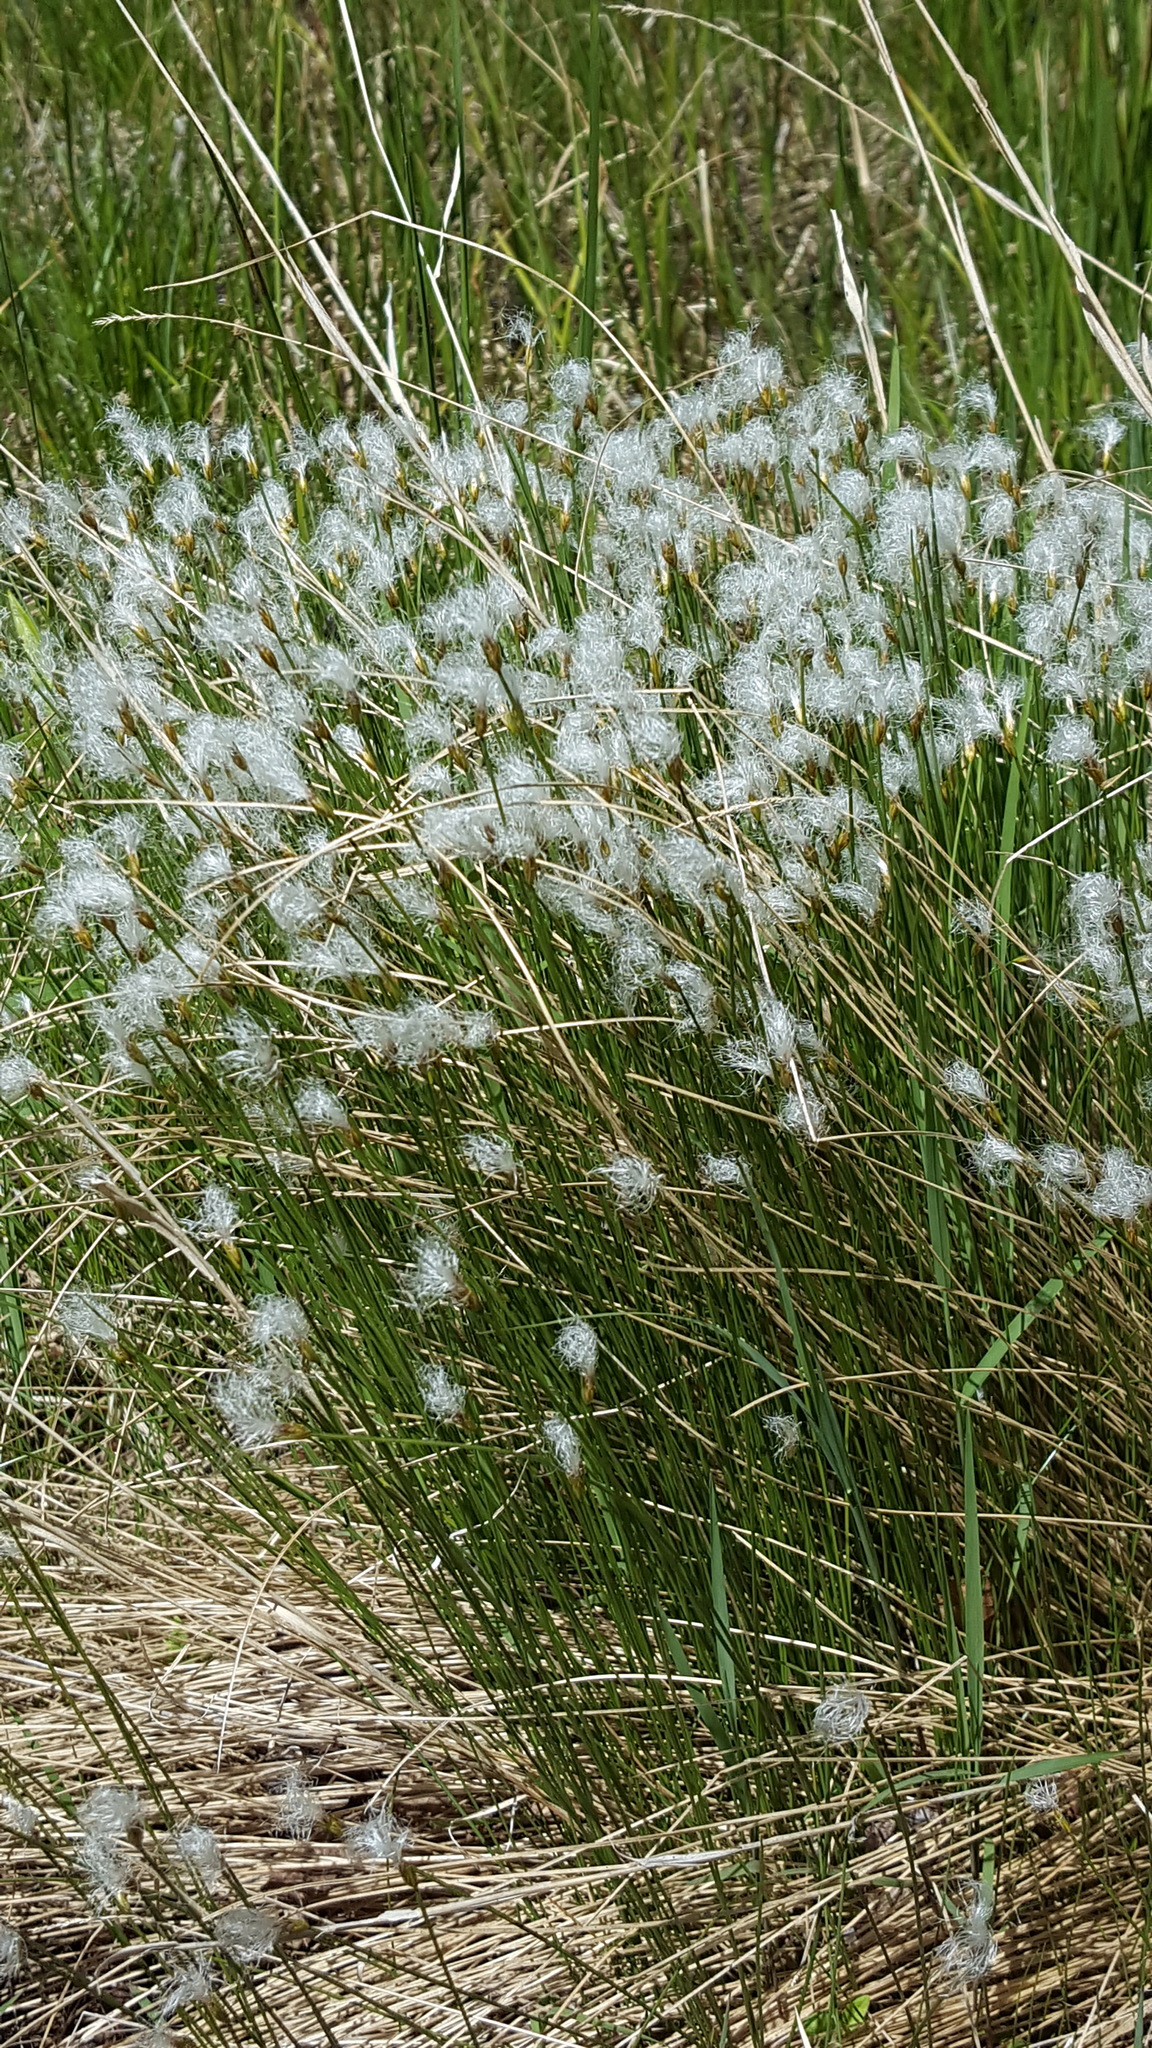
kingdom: Plantae
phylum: Tracheophyta
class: Liliopsida
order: Poales
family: Cyperaceae
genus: Trichophorum
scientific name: Trichophorum alpinum
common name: Alpine bulrush
